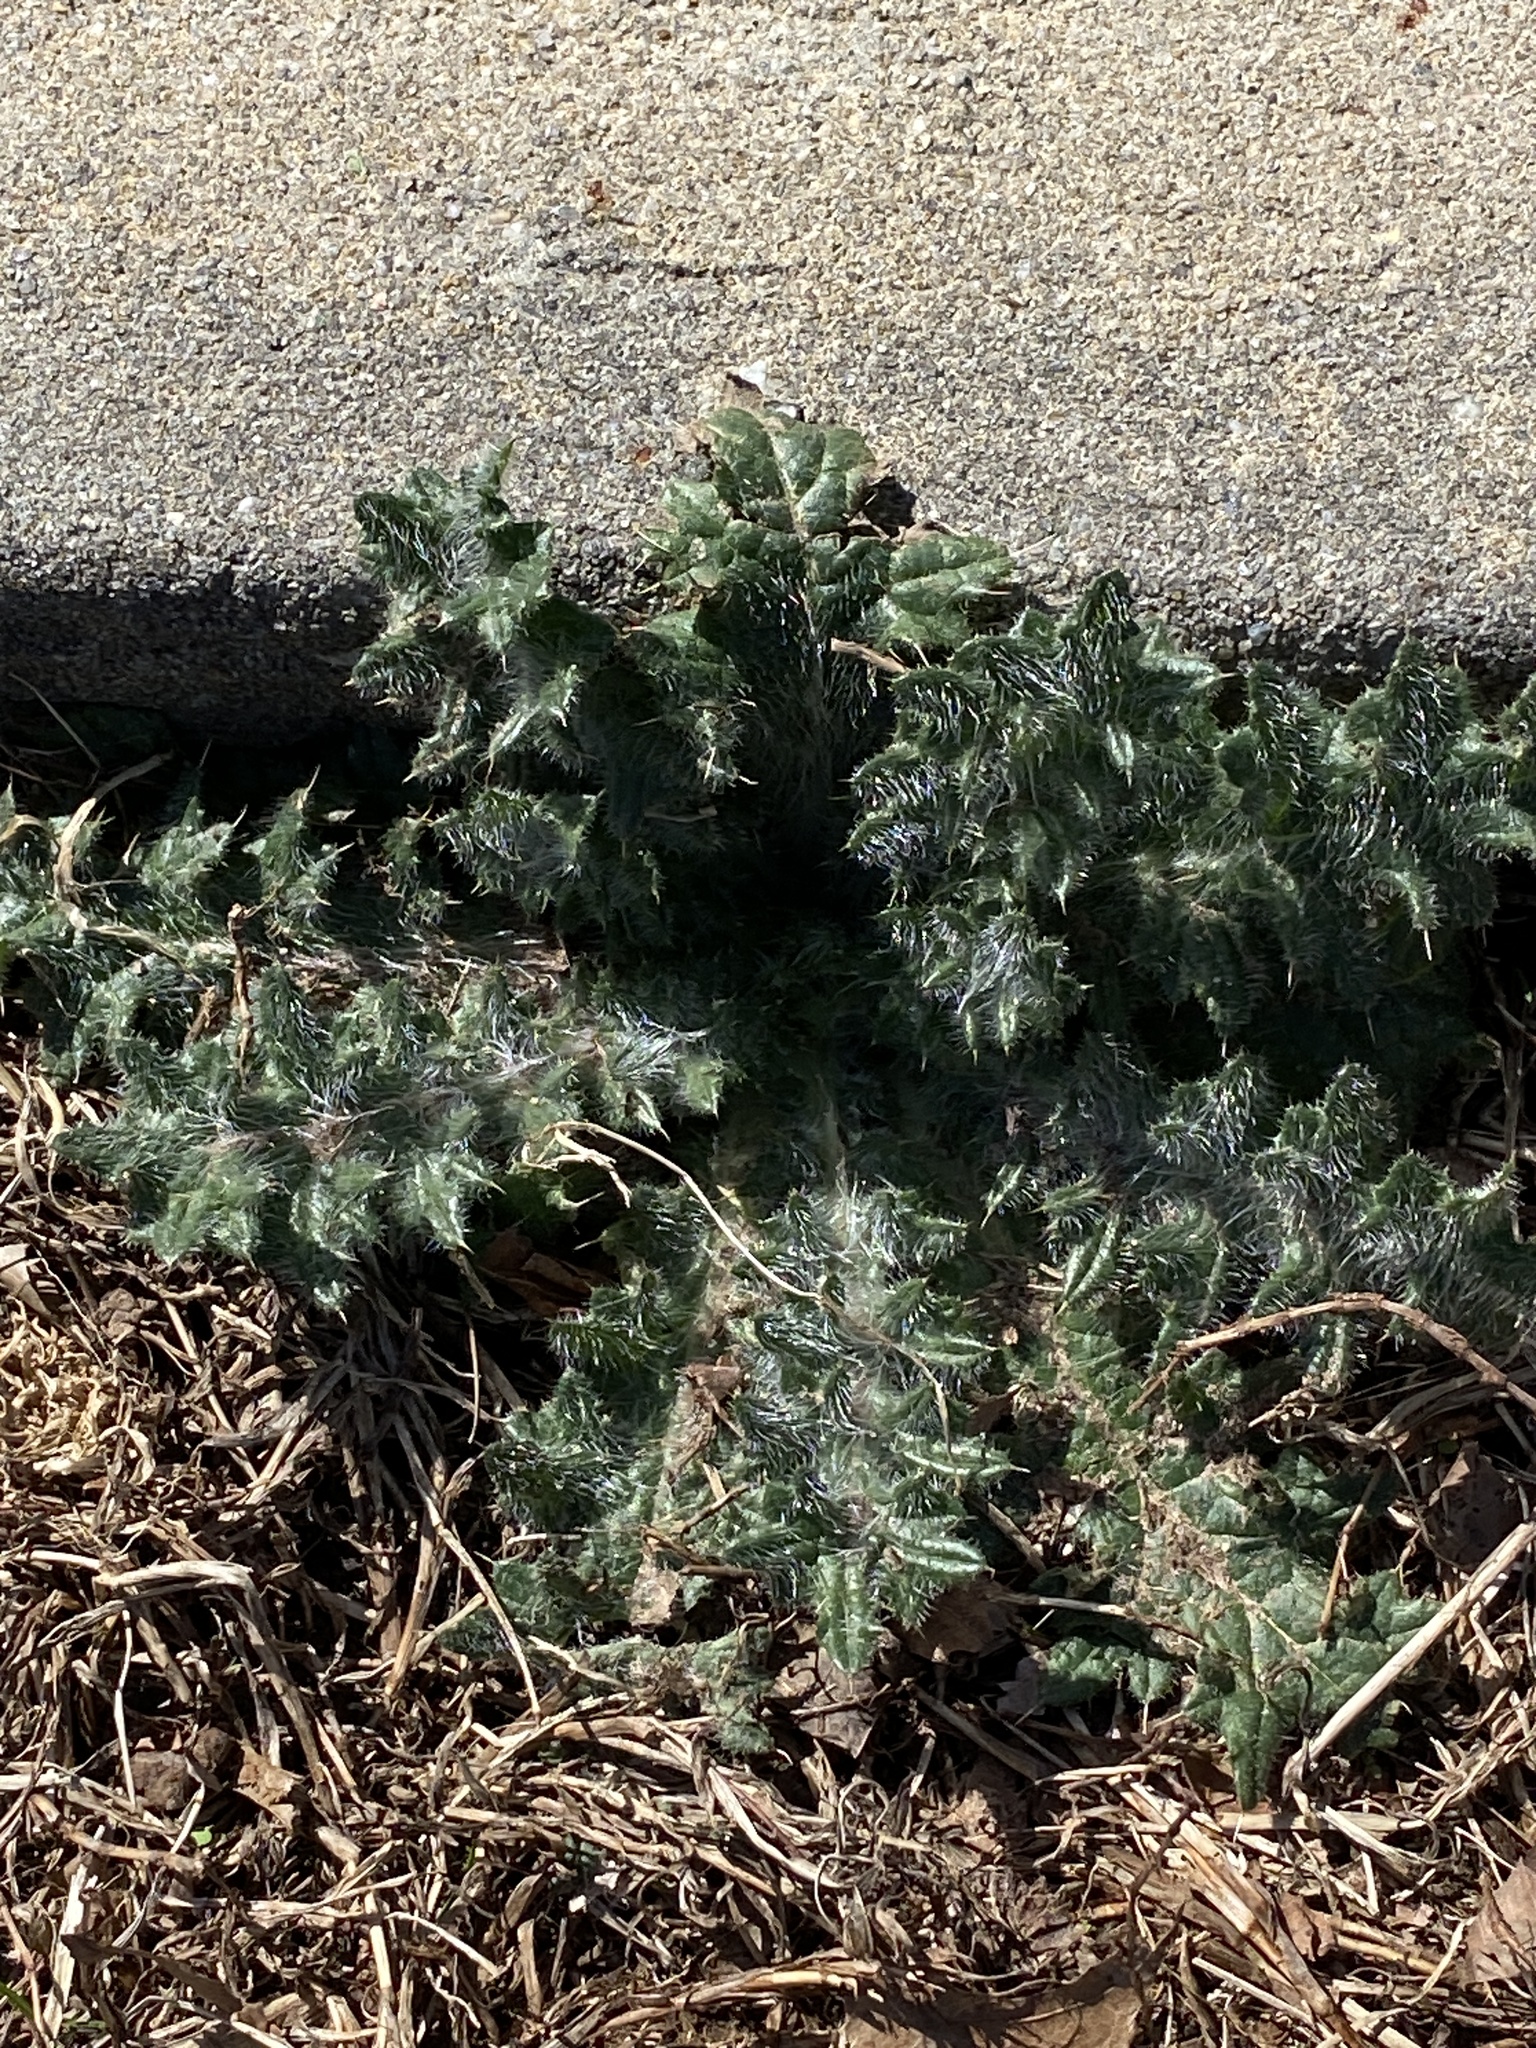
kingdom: Plantae
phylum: Tracheophyta
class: Magnoliopsida
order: Asterales
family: Asteraceae
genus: Cirsium
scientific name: Cirsium vulgare
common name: Bull thistle
